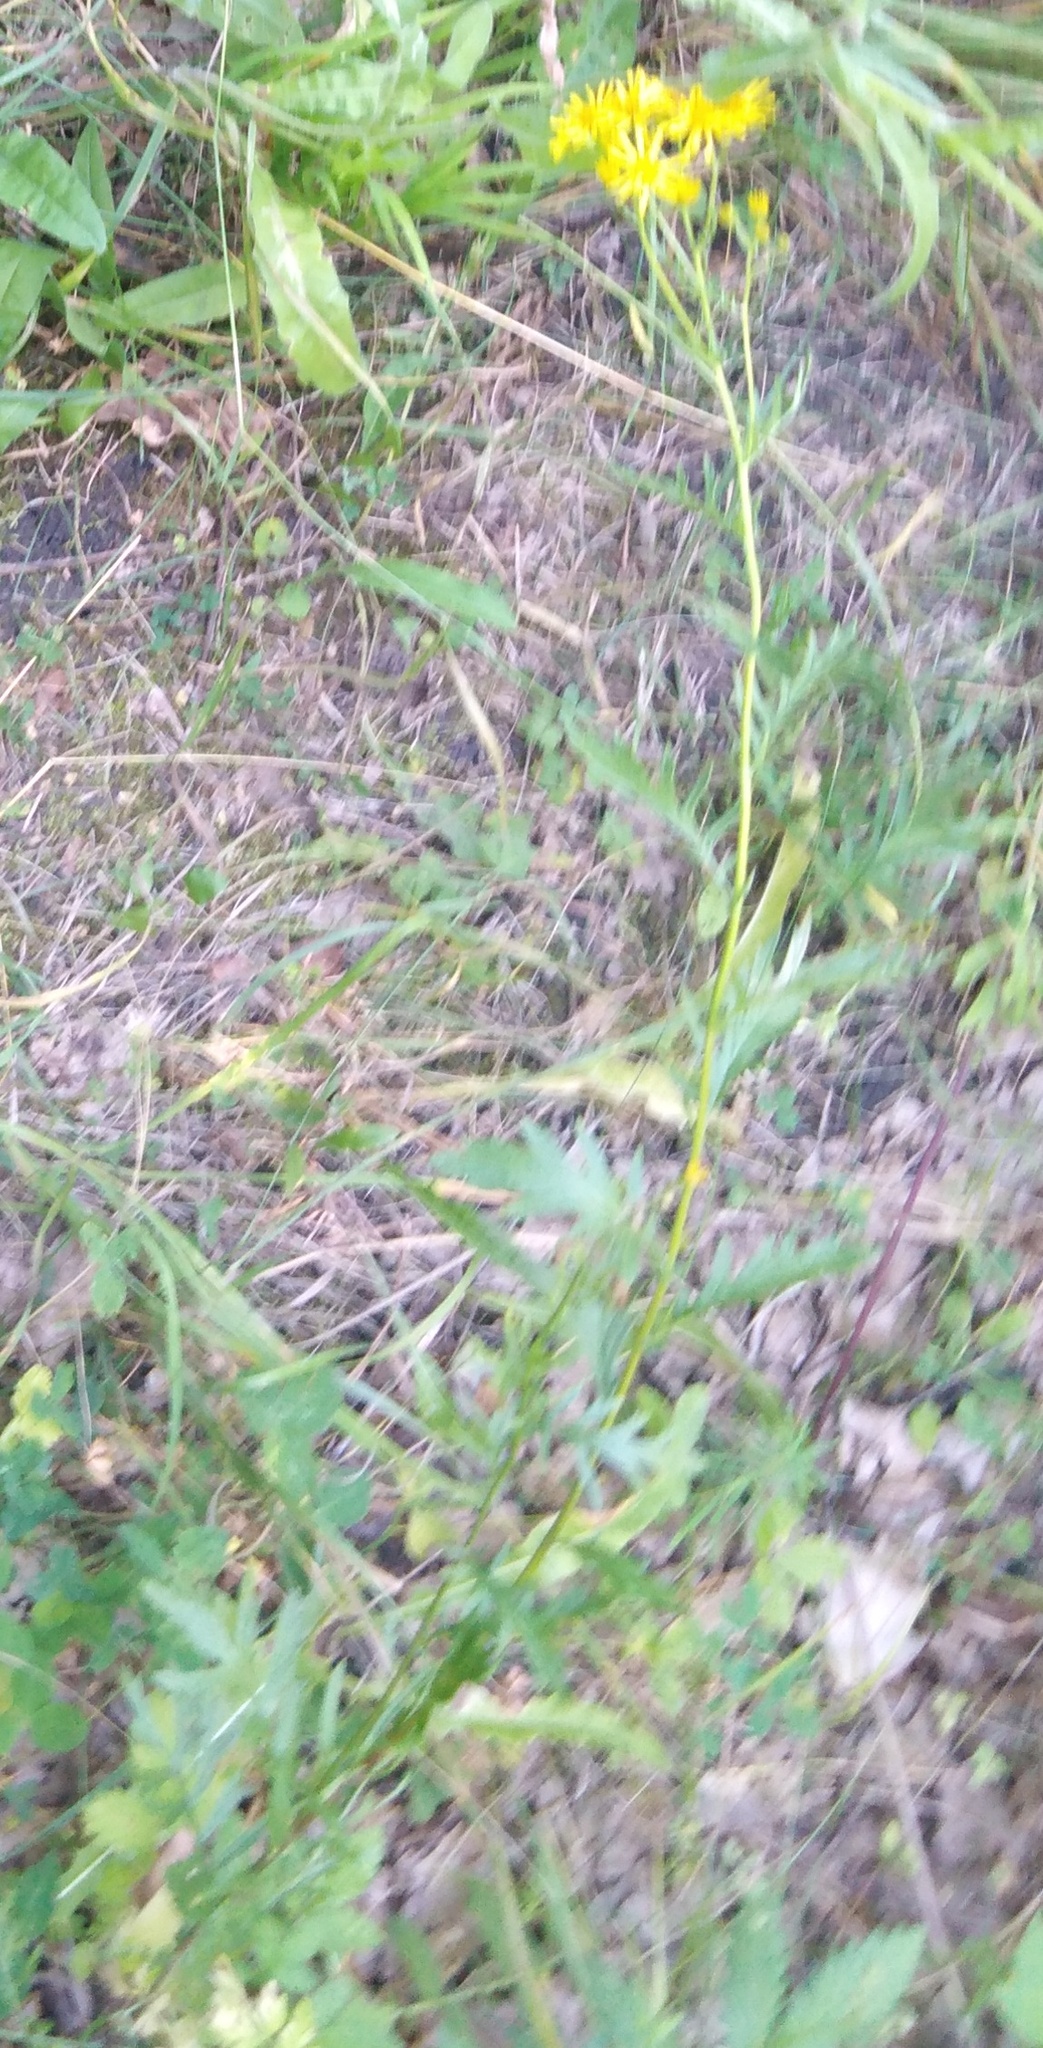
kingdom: Plantae
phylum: Tracheophyta
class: Magnoliopsida
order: Asterales
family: Asteraceae
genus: Jacobaea
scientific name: Jacobaea vulgaris
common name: Stinking willie
